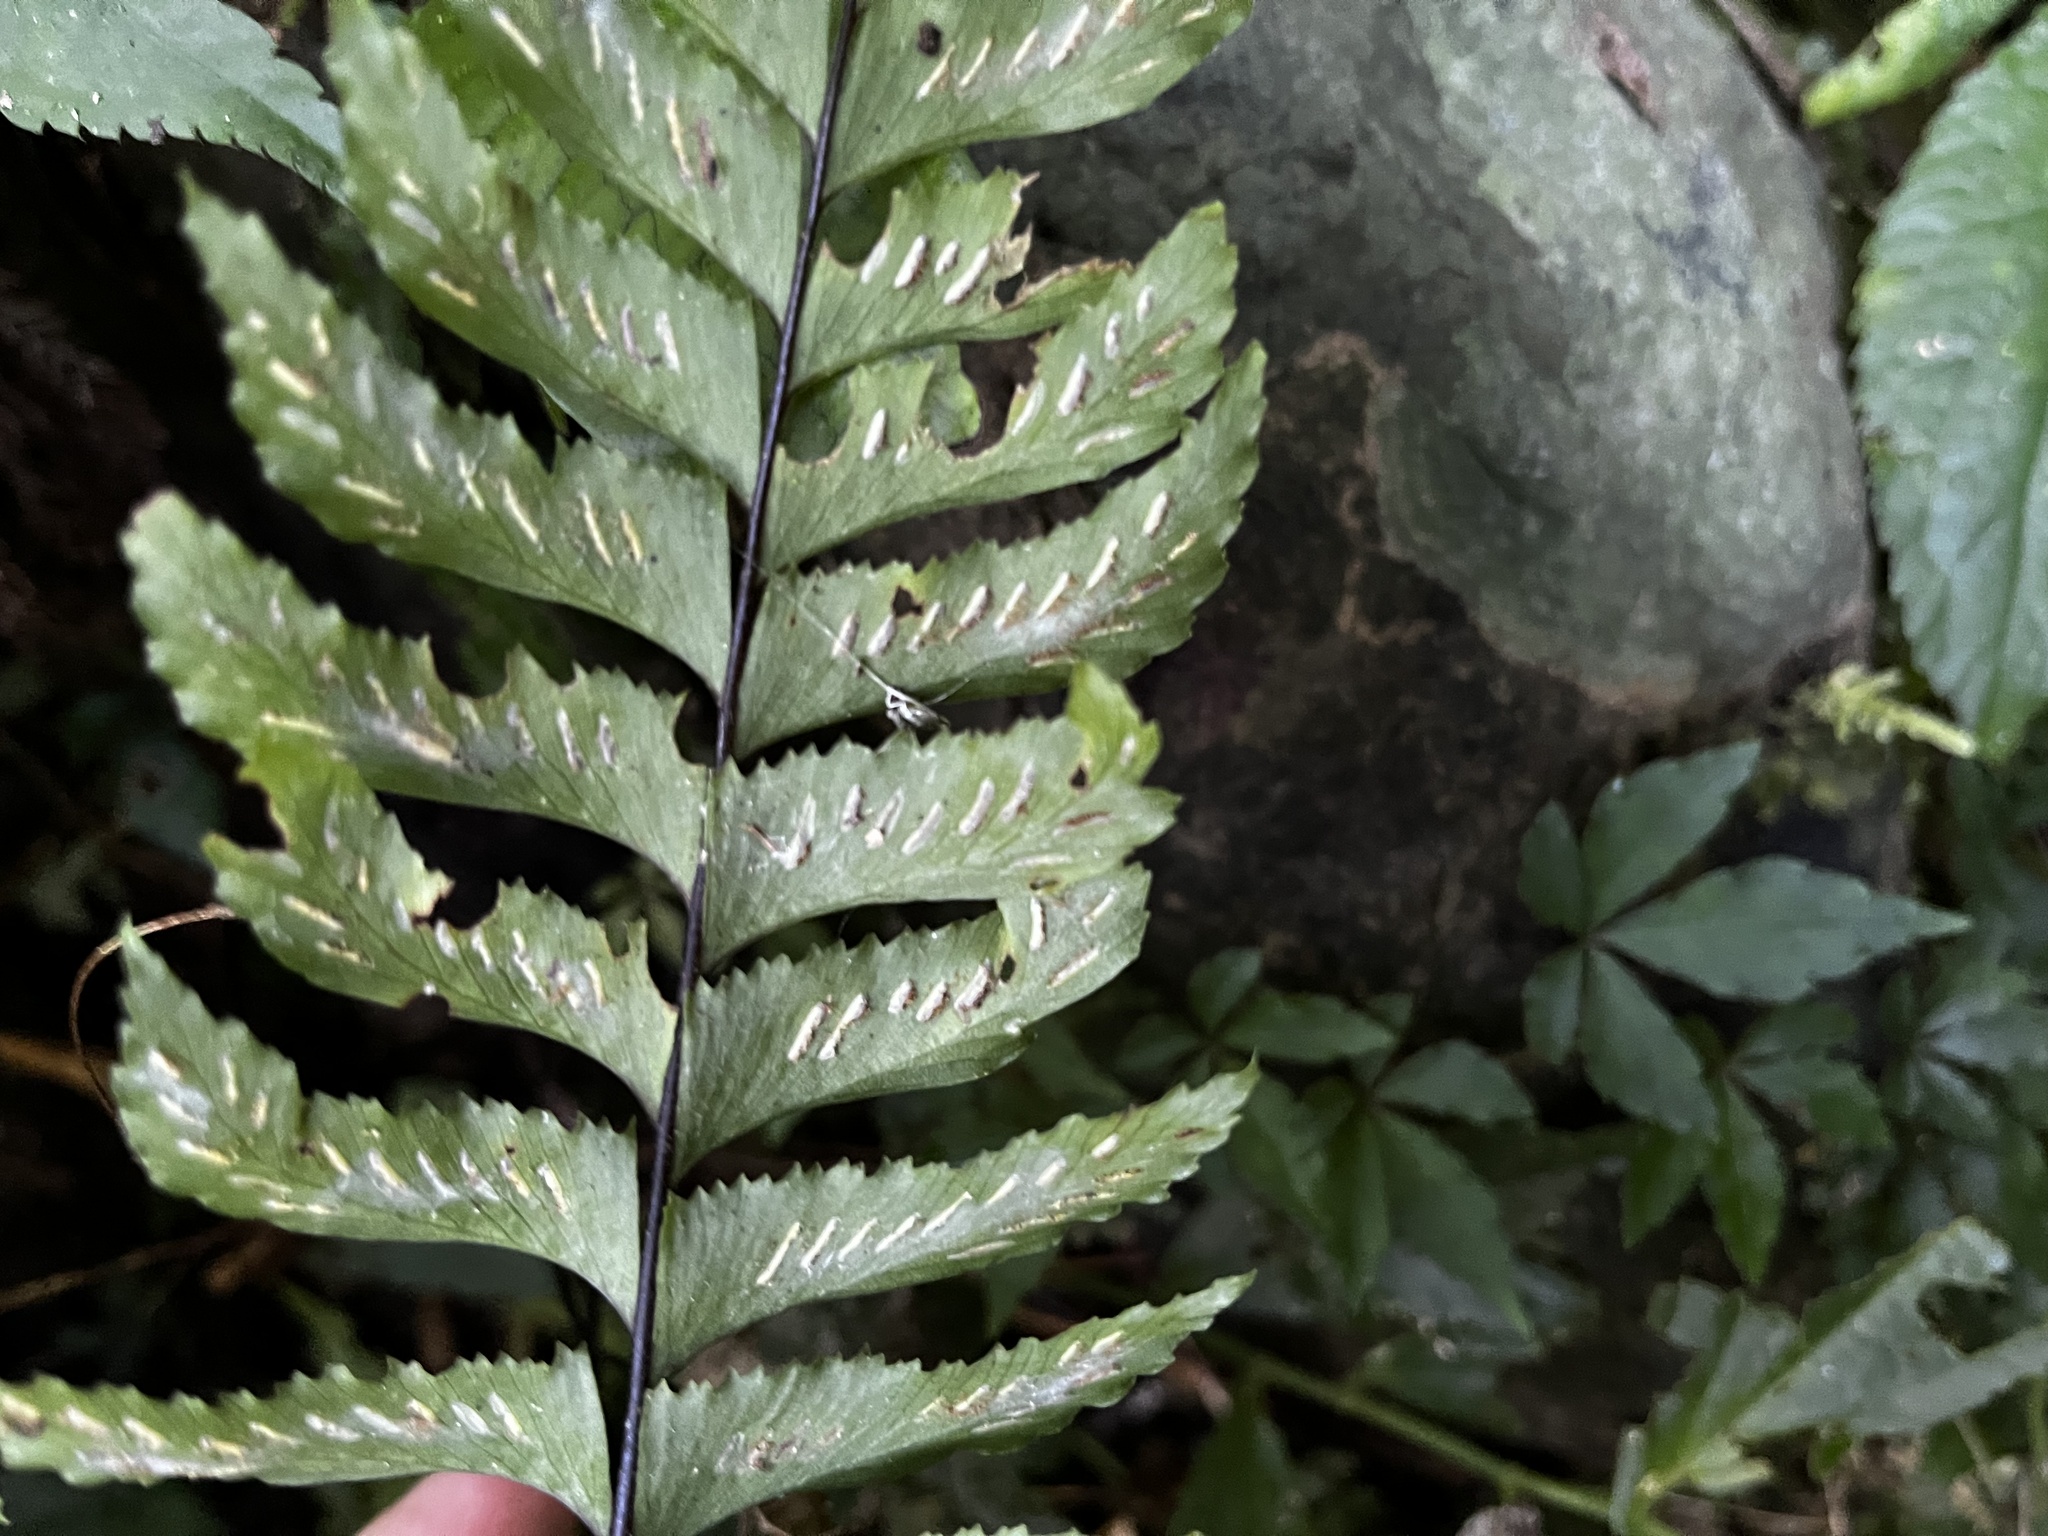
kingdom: Plantae
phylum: Tracheophyta
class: Polypodiopsida
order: Polypodiales
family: Aspleniaceae
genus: Hymenasplenium
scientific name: Hymenasplenium excisum
